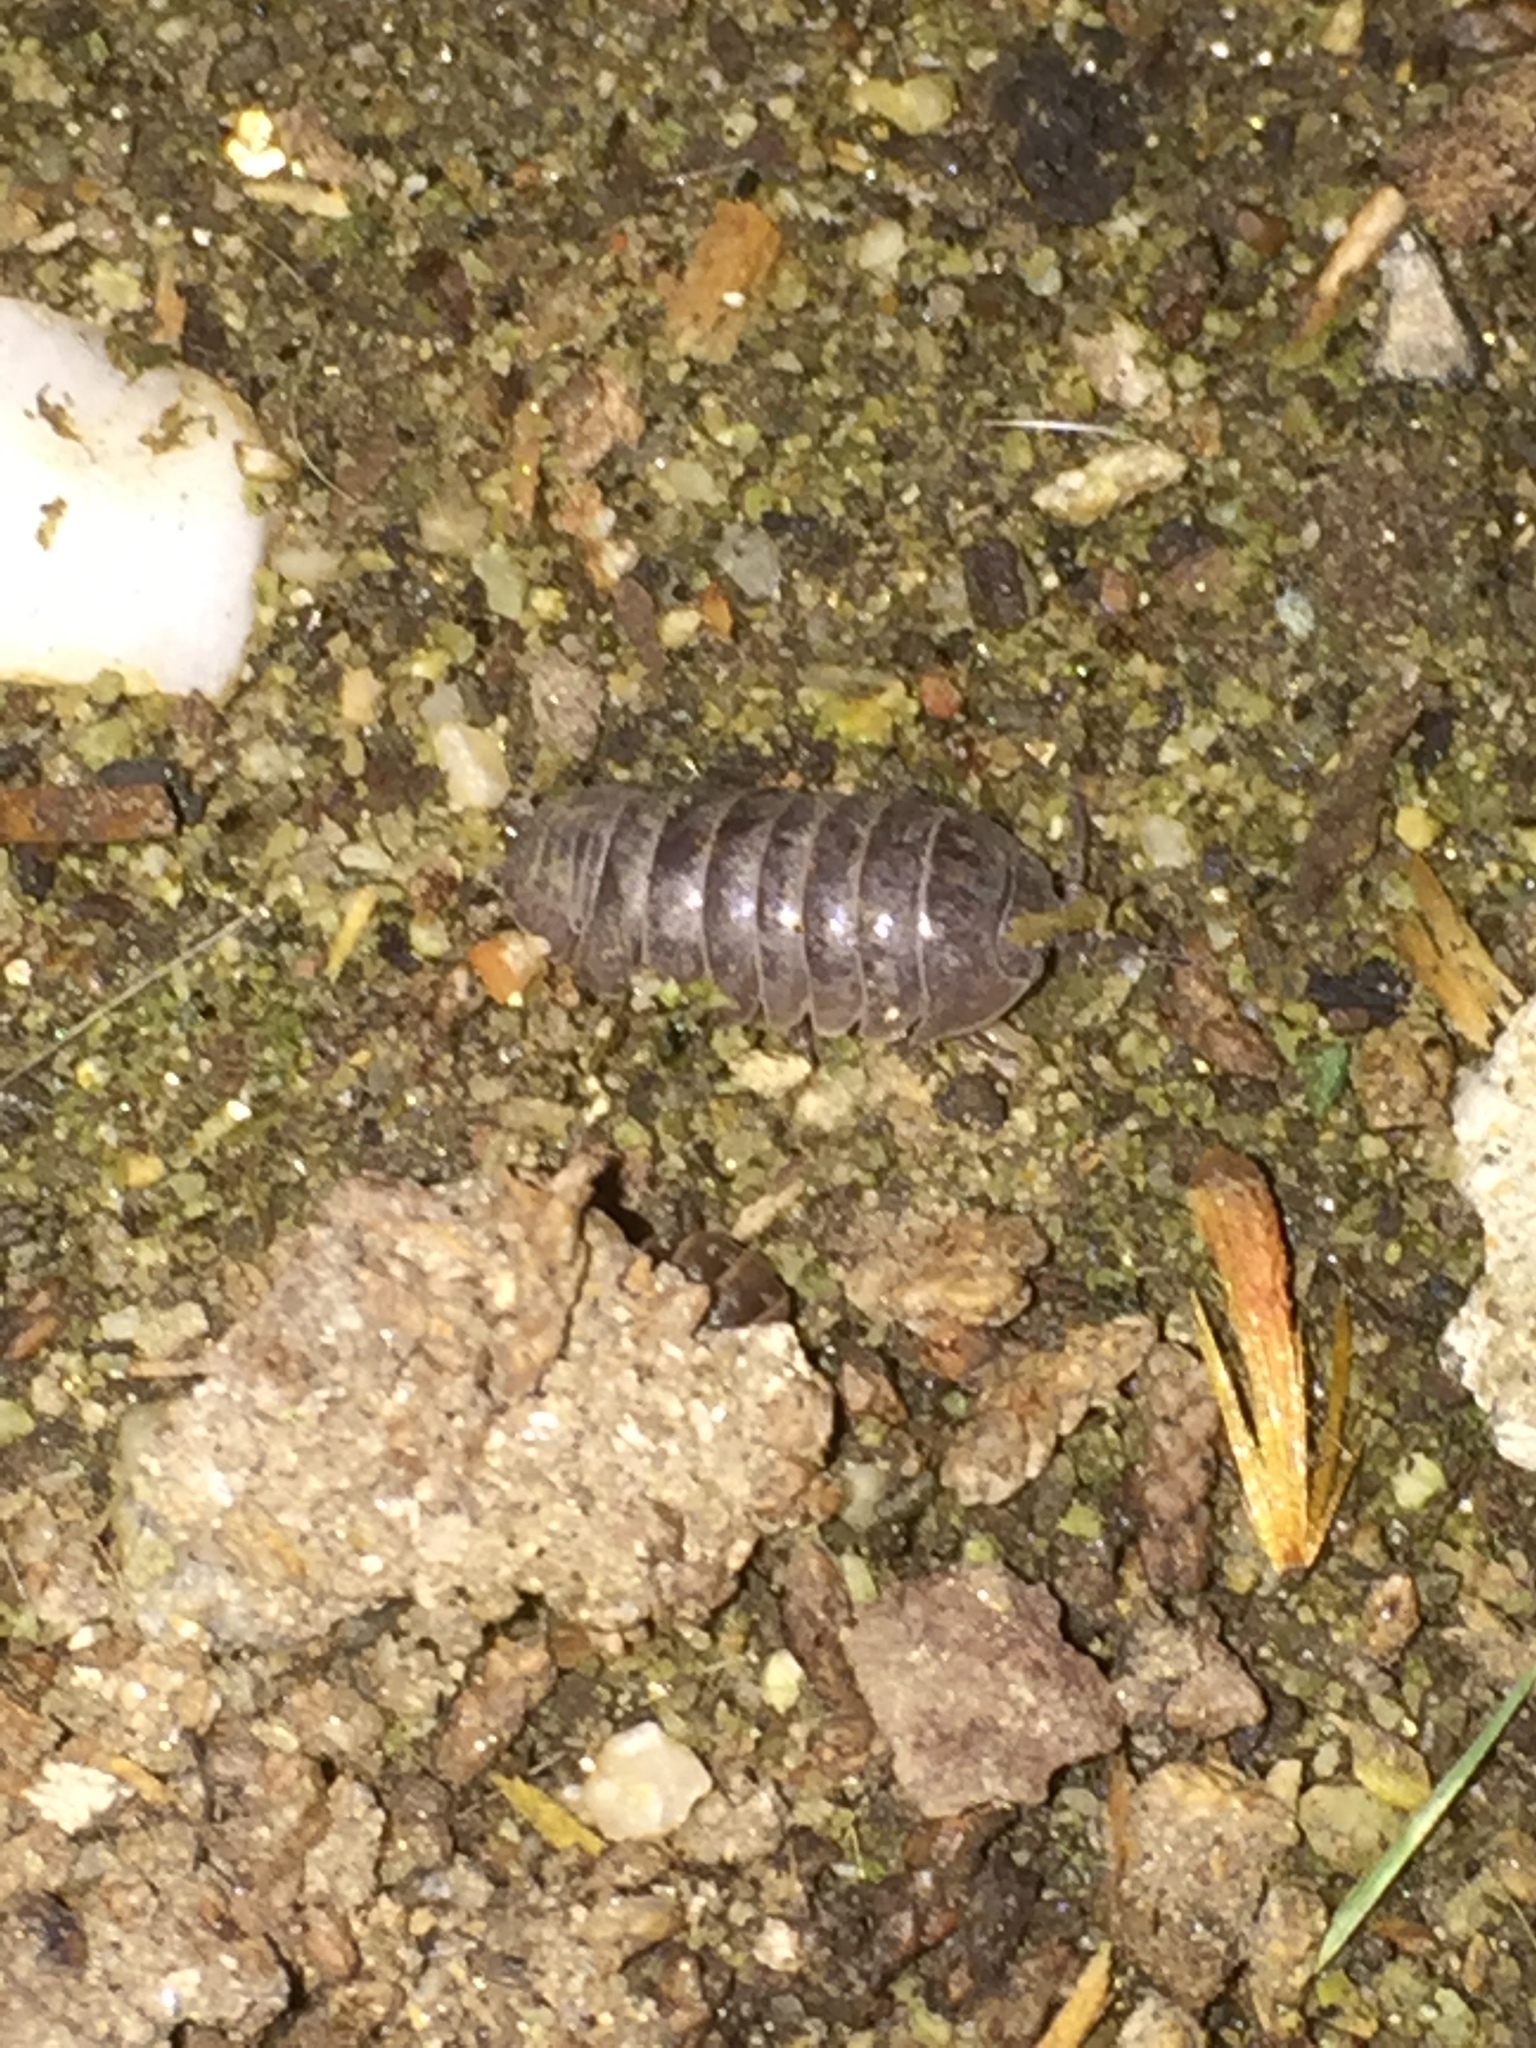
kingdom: Animalia
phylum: Arthropoda
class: Malacostraca
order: Isopoda
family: Armadillidiidae
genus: Armadillidium
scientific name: Armadillidium vulgare
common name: Common pill woodlouse
